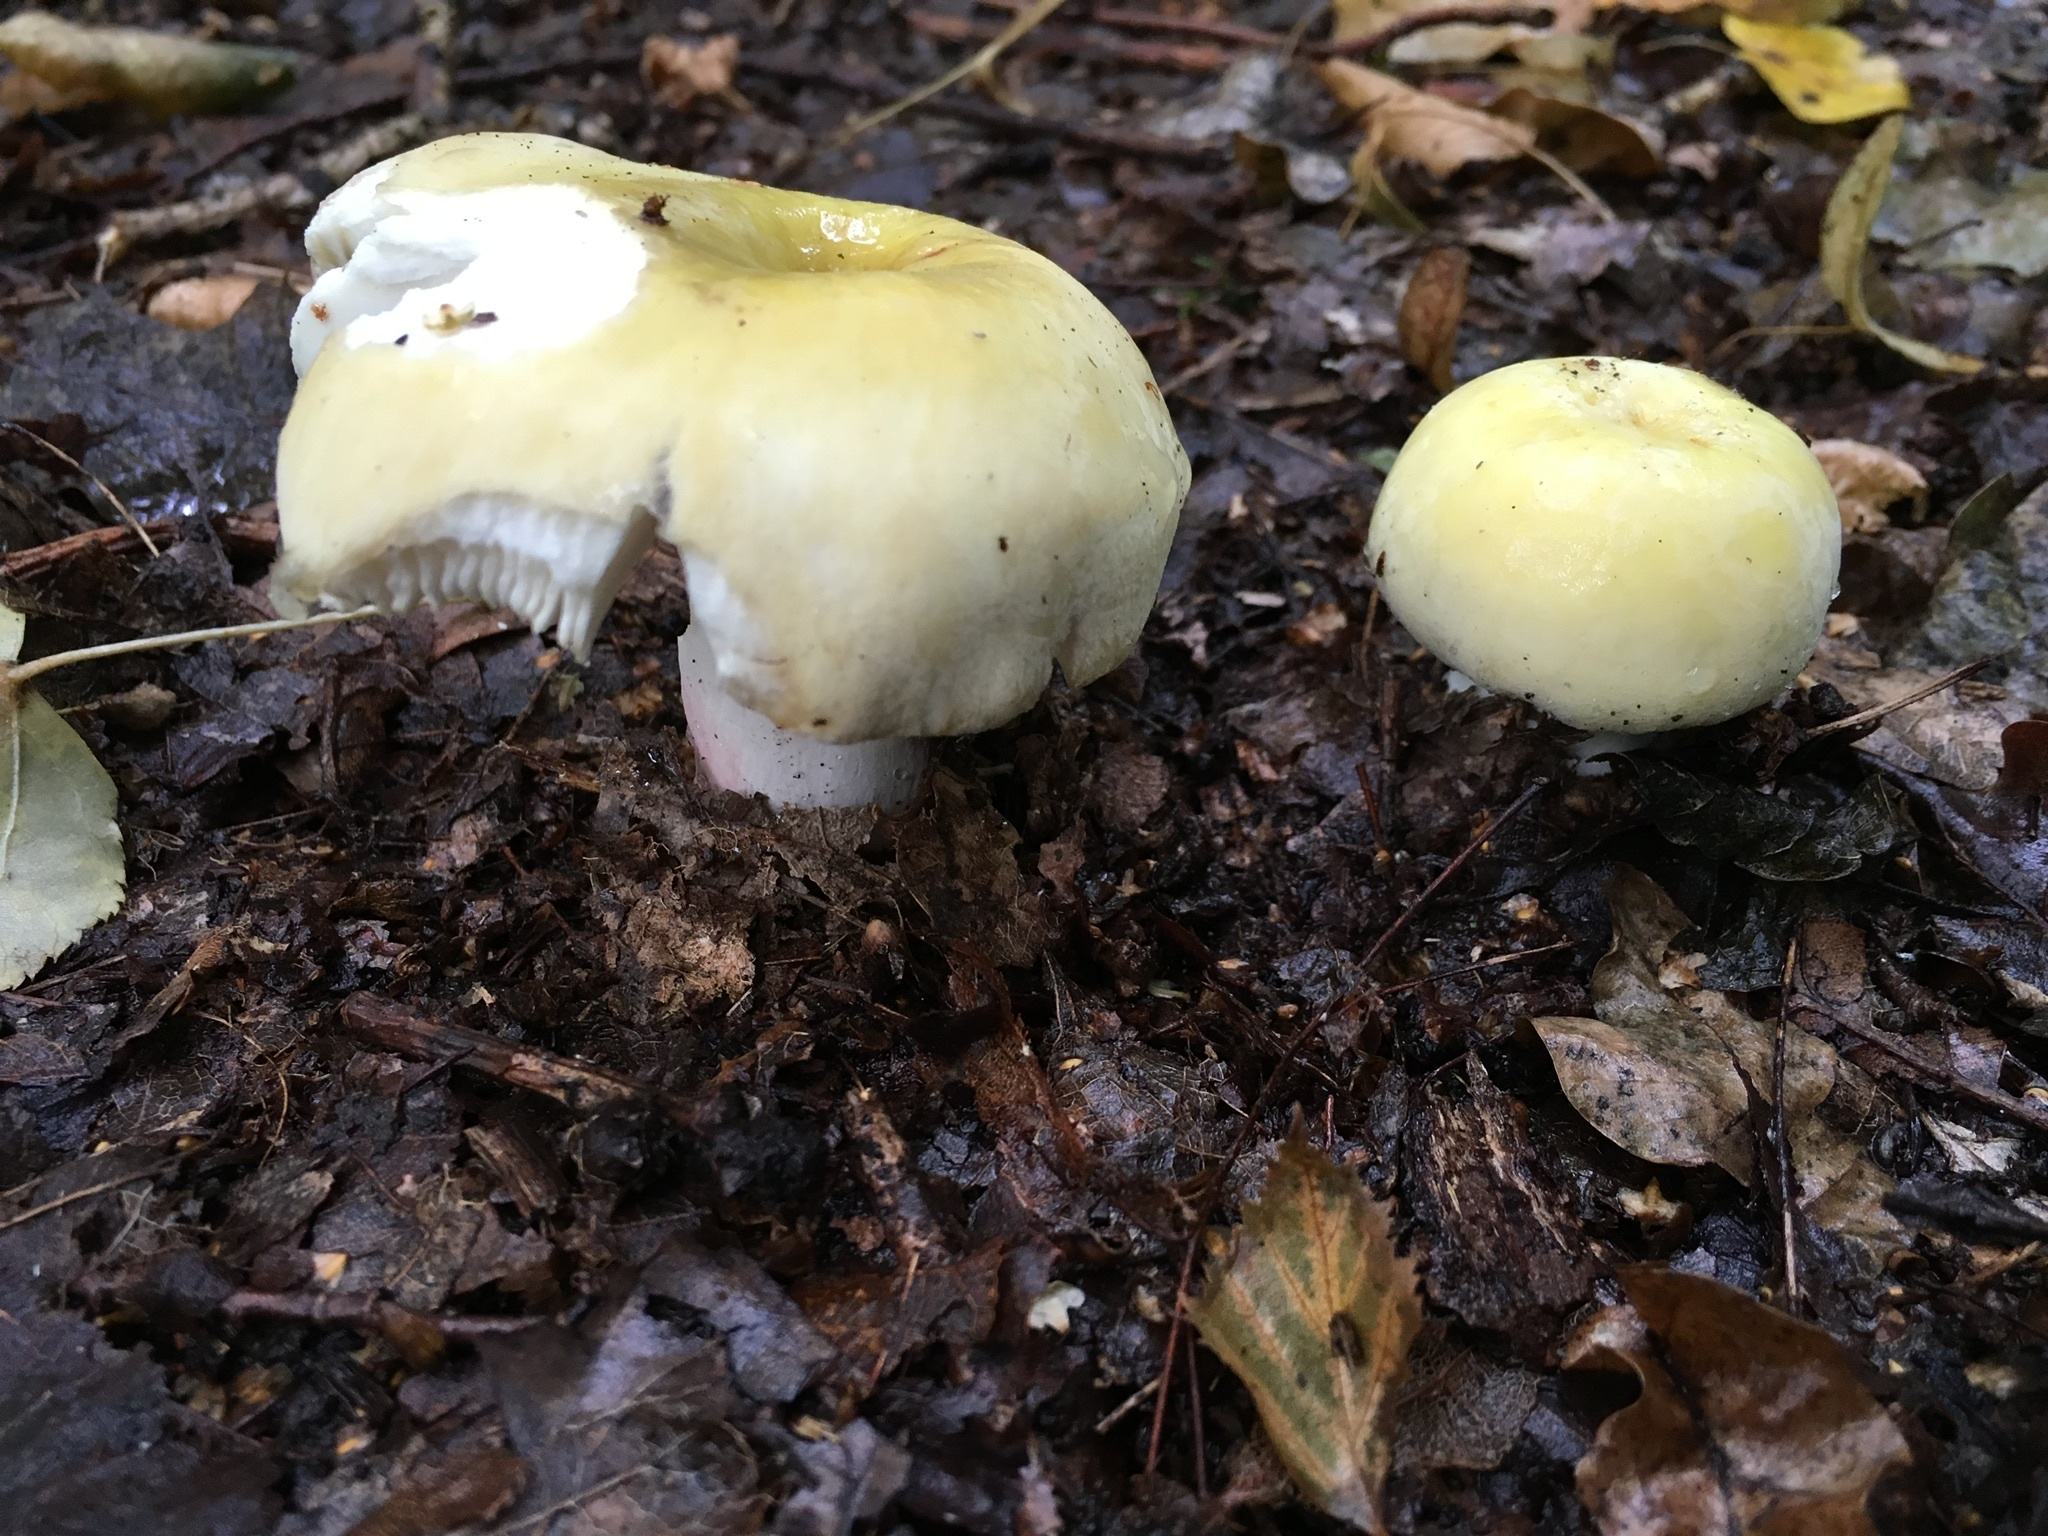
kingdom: Fungi
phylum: Basidiomycota
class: Agaricomycetes
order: Russulales
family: Russulaceae
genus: Russula
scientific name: Russula violeipes
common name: Velvet brittlegill
